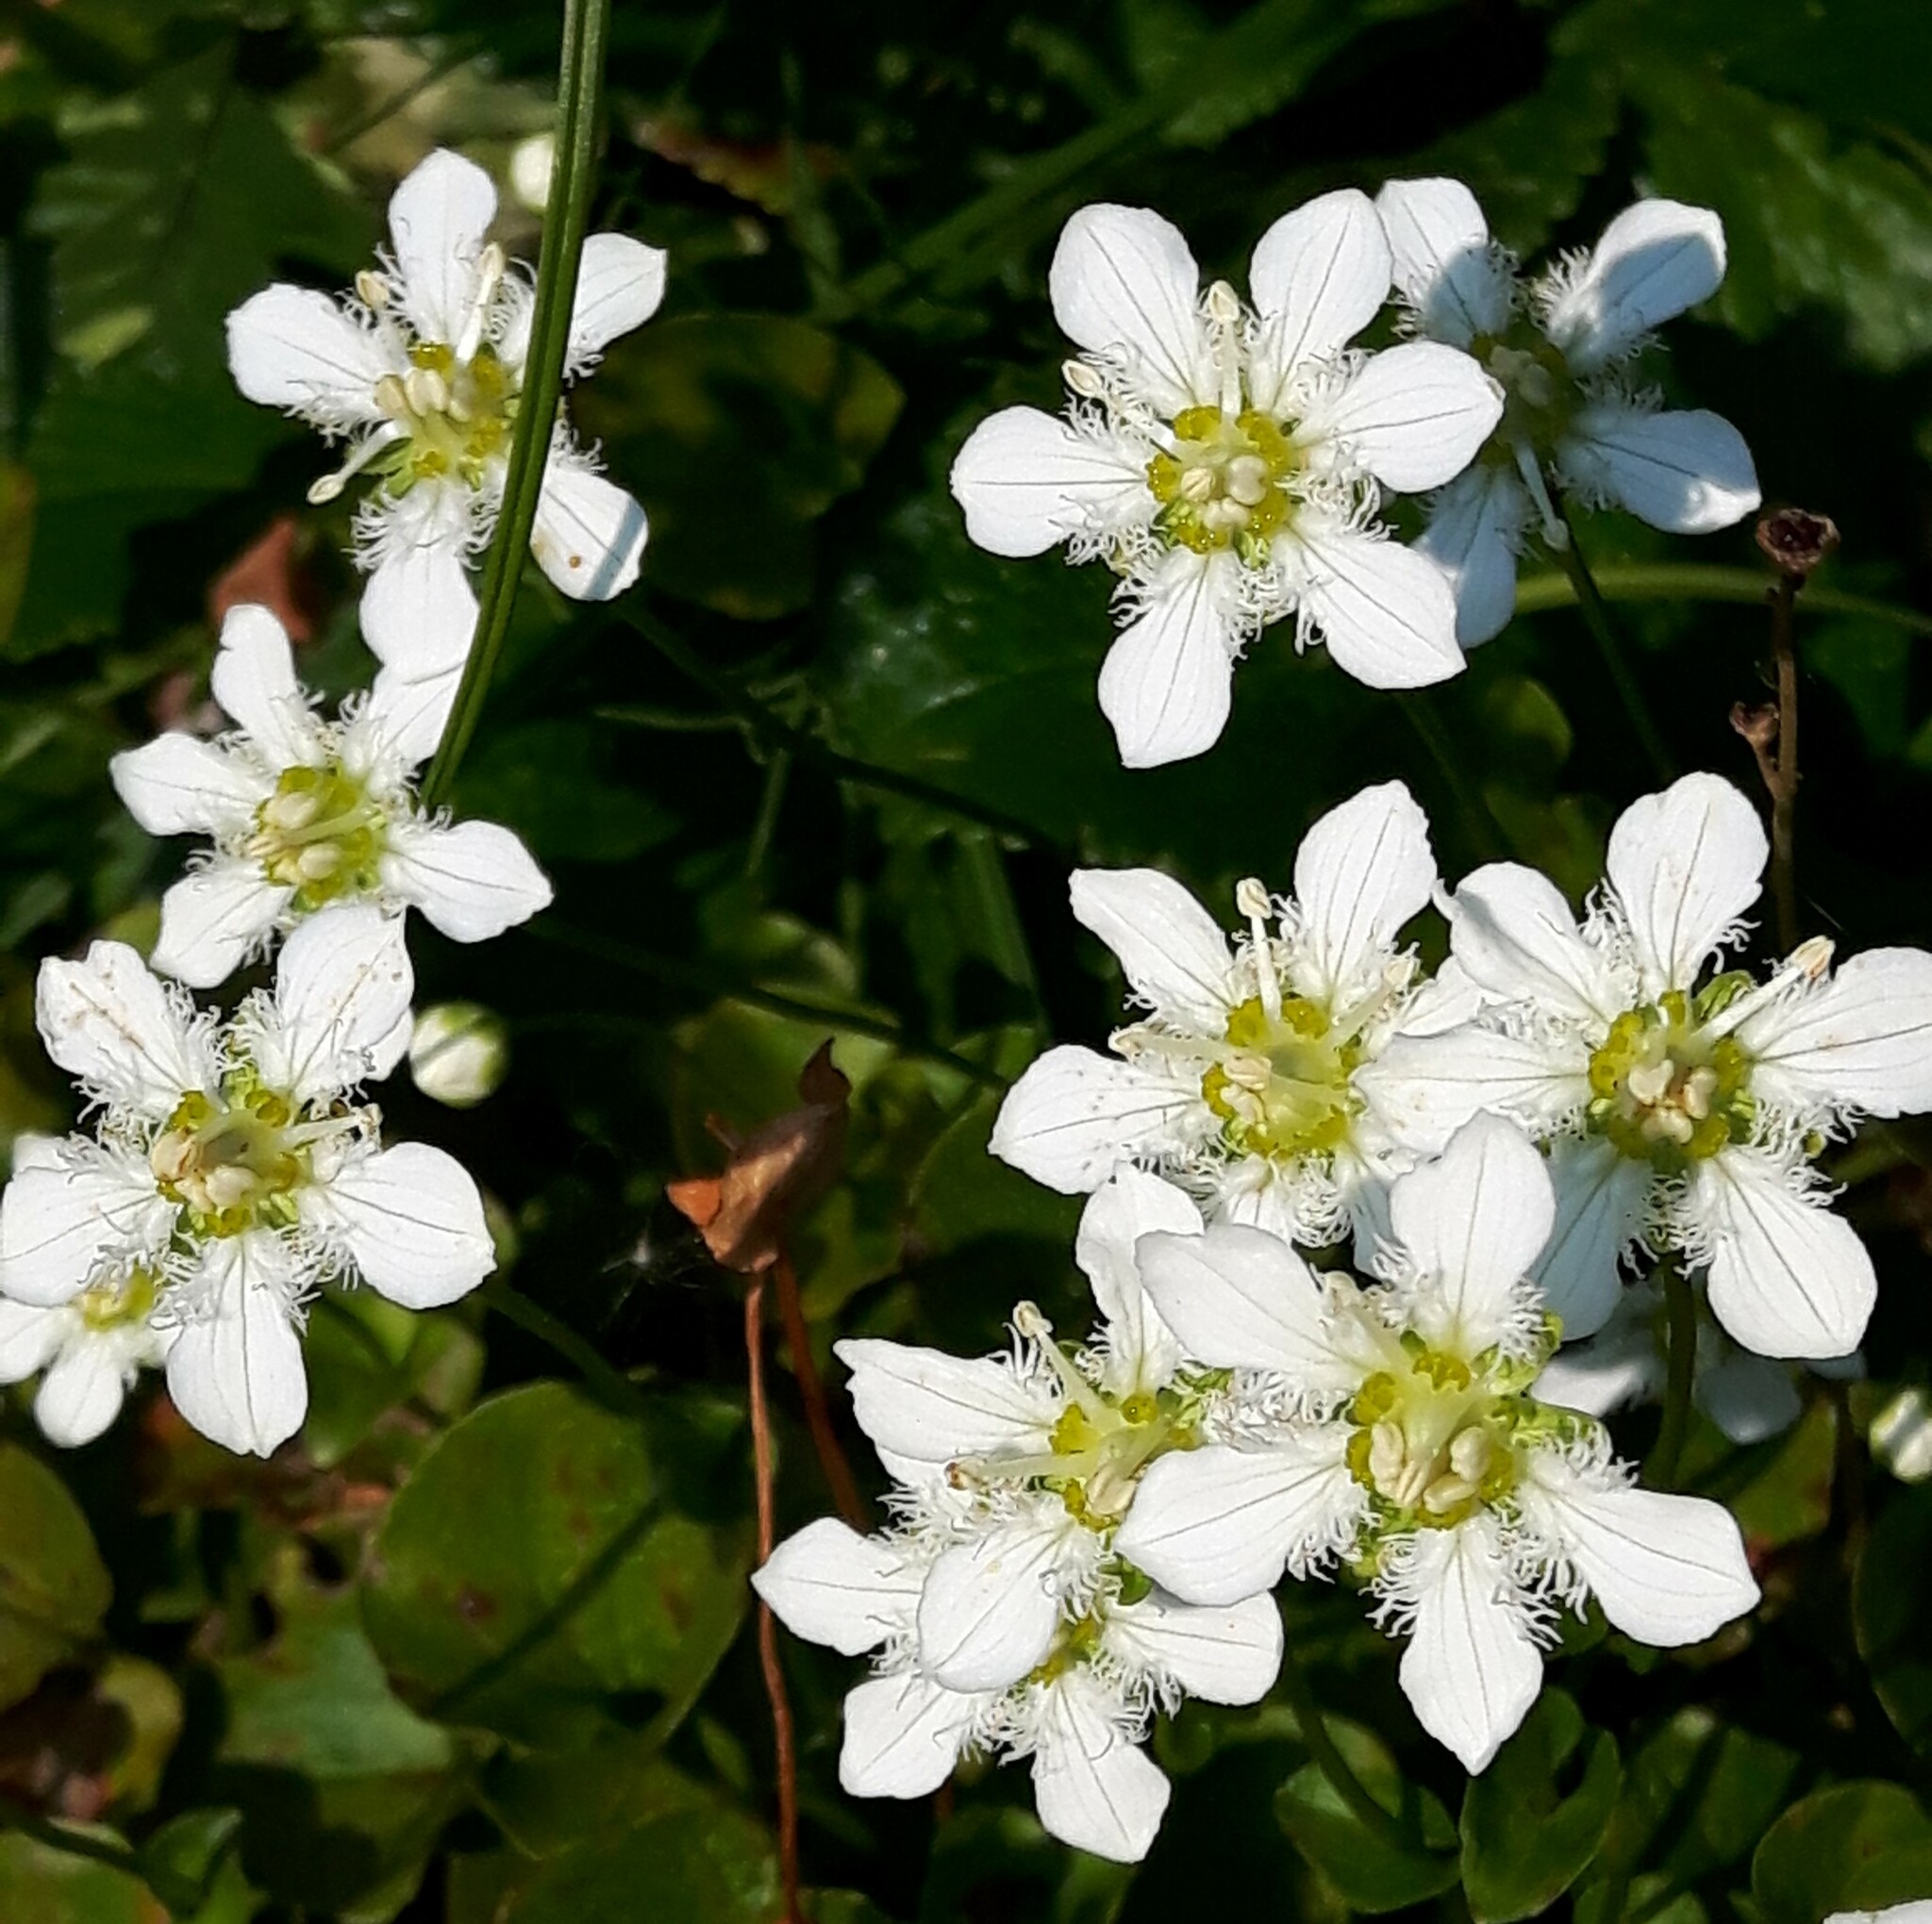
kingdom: Plantae
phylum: Tracheophyta
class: Magnoliopsida
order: Celastrales
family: Parnassiaceae
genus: Parnassia
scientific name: Parnassia fimbriata
